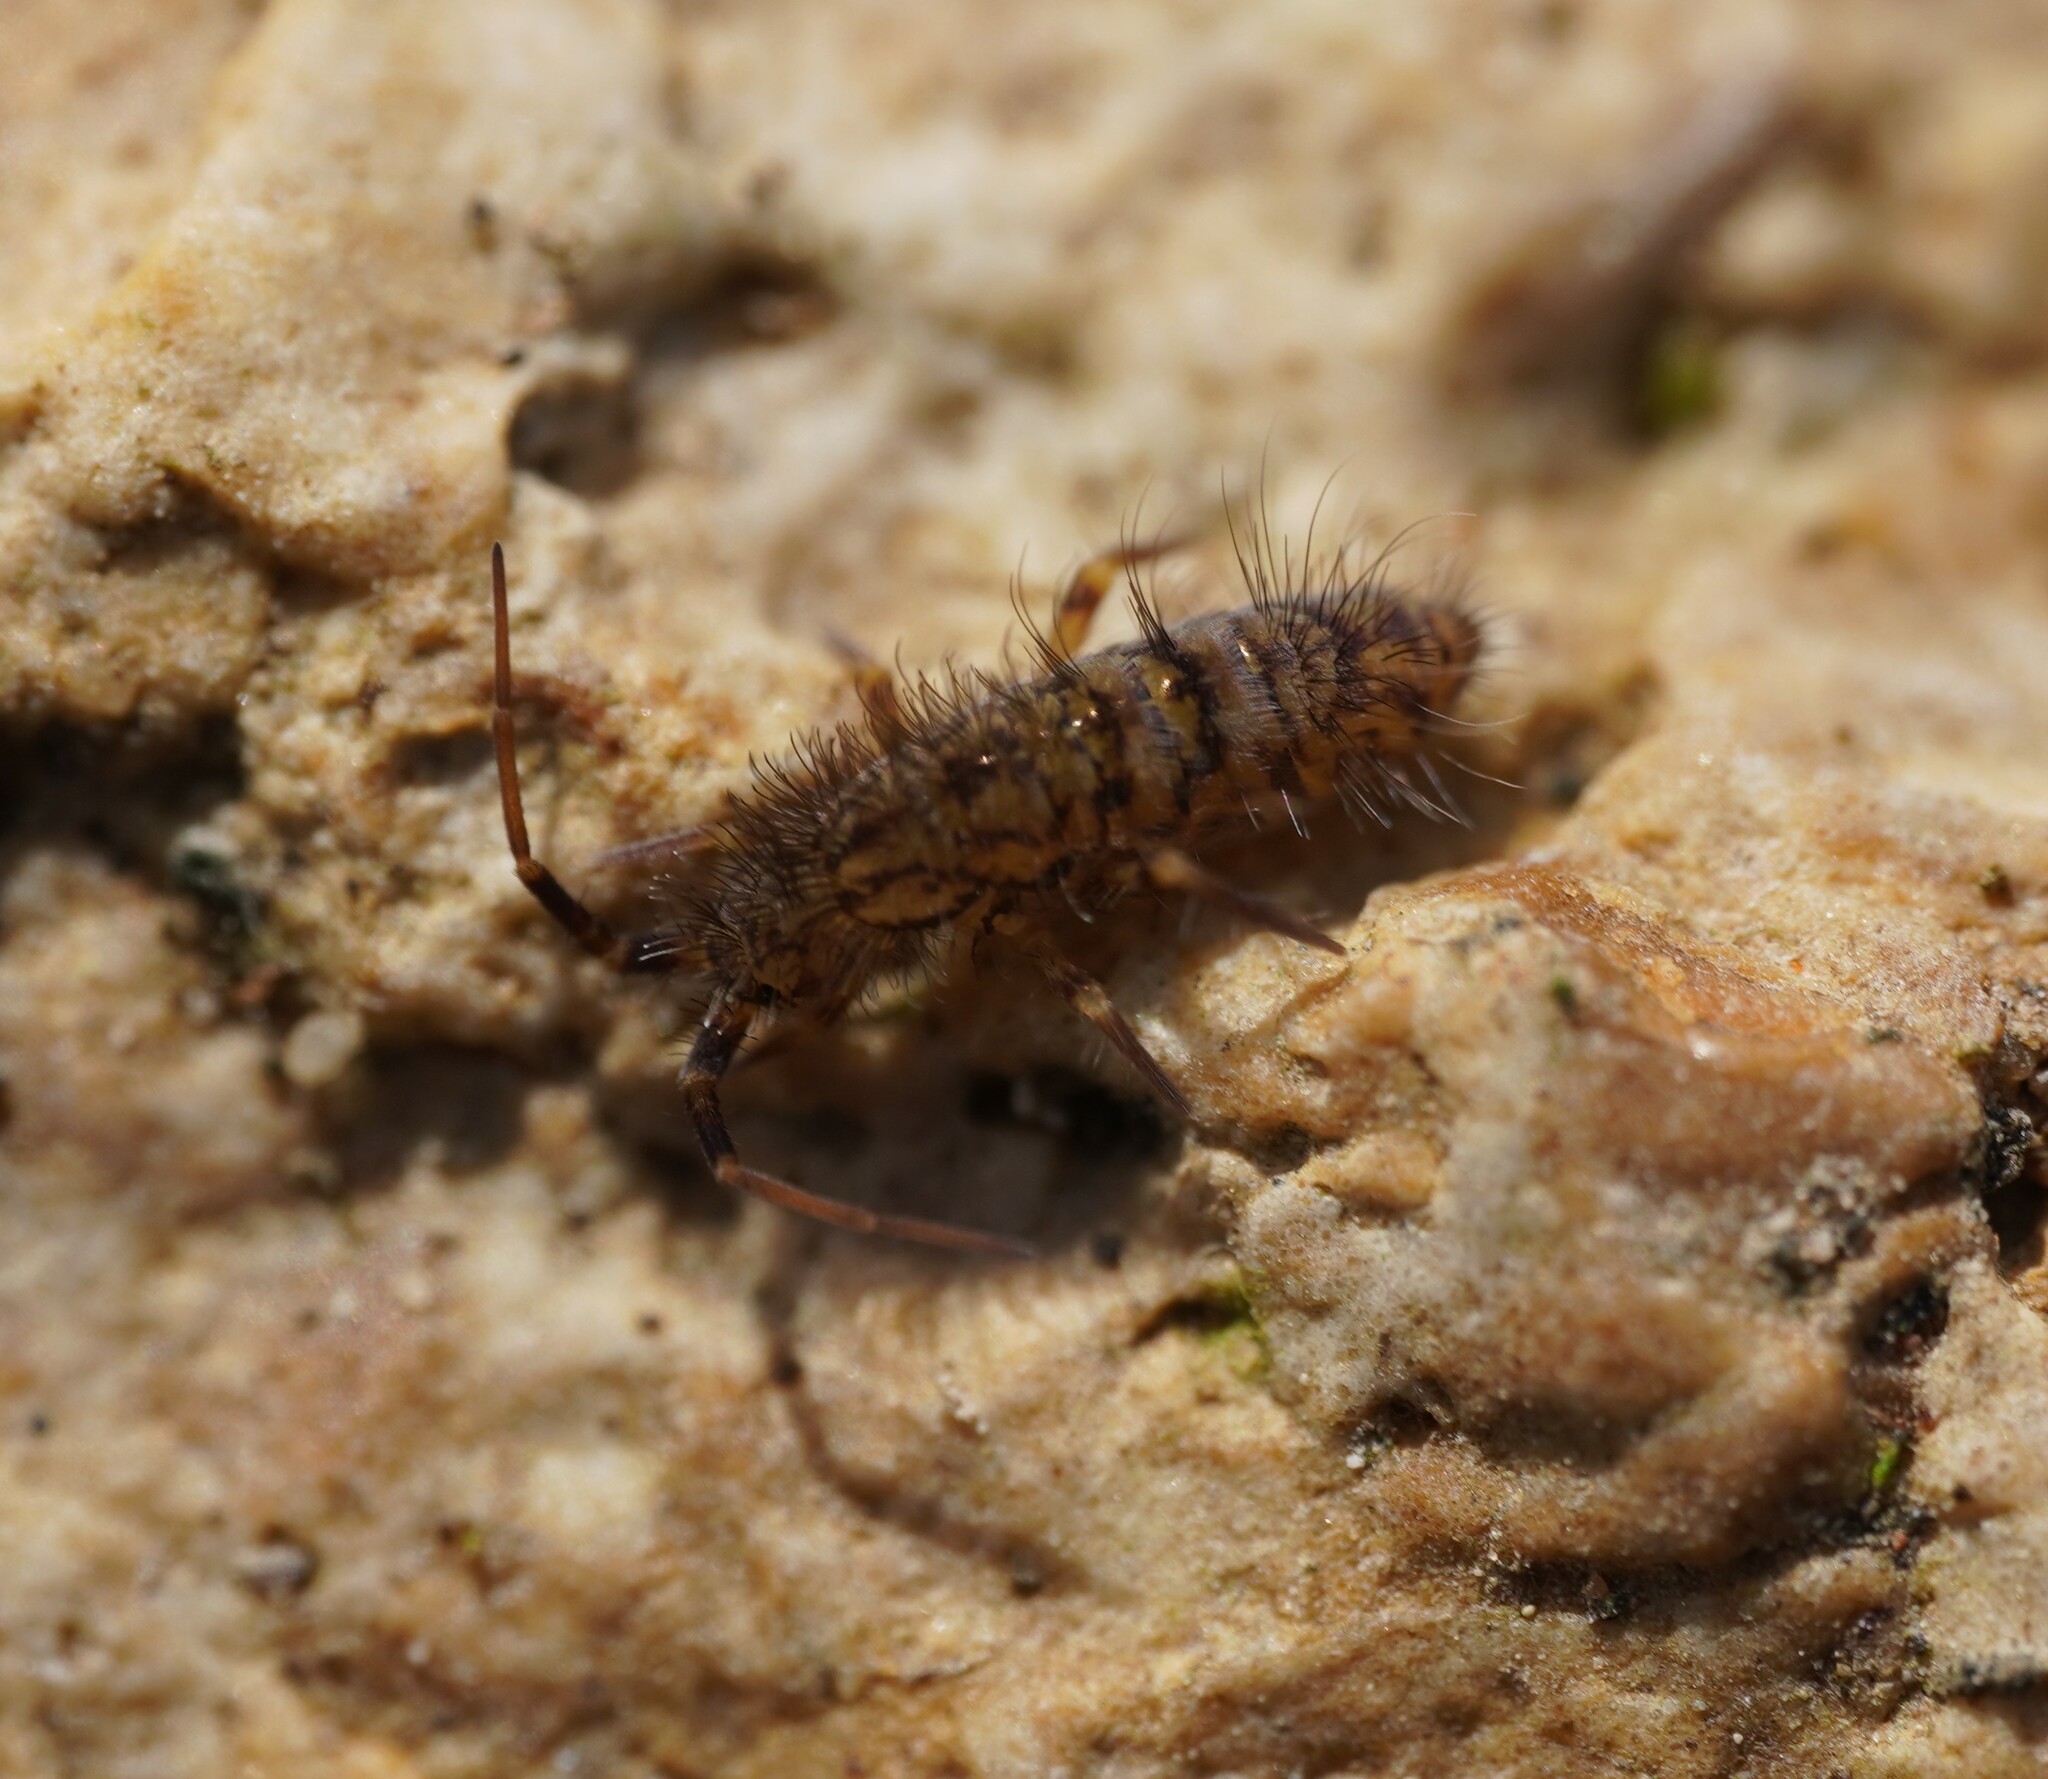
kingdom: Animalia
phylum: Arthropoda
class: Collembola
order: Entomobryomorpha
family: Orchesellidae
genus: Orchesella
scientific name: Orchesella villosa
